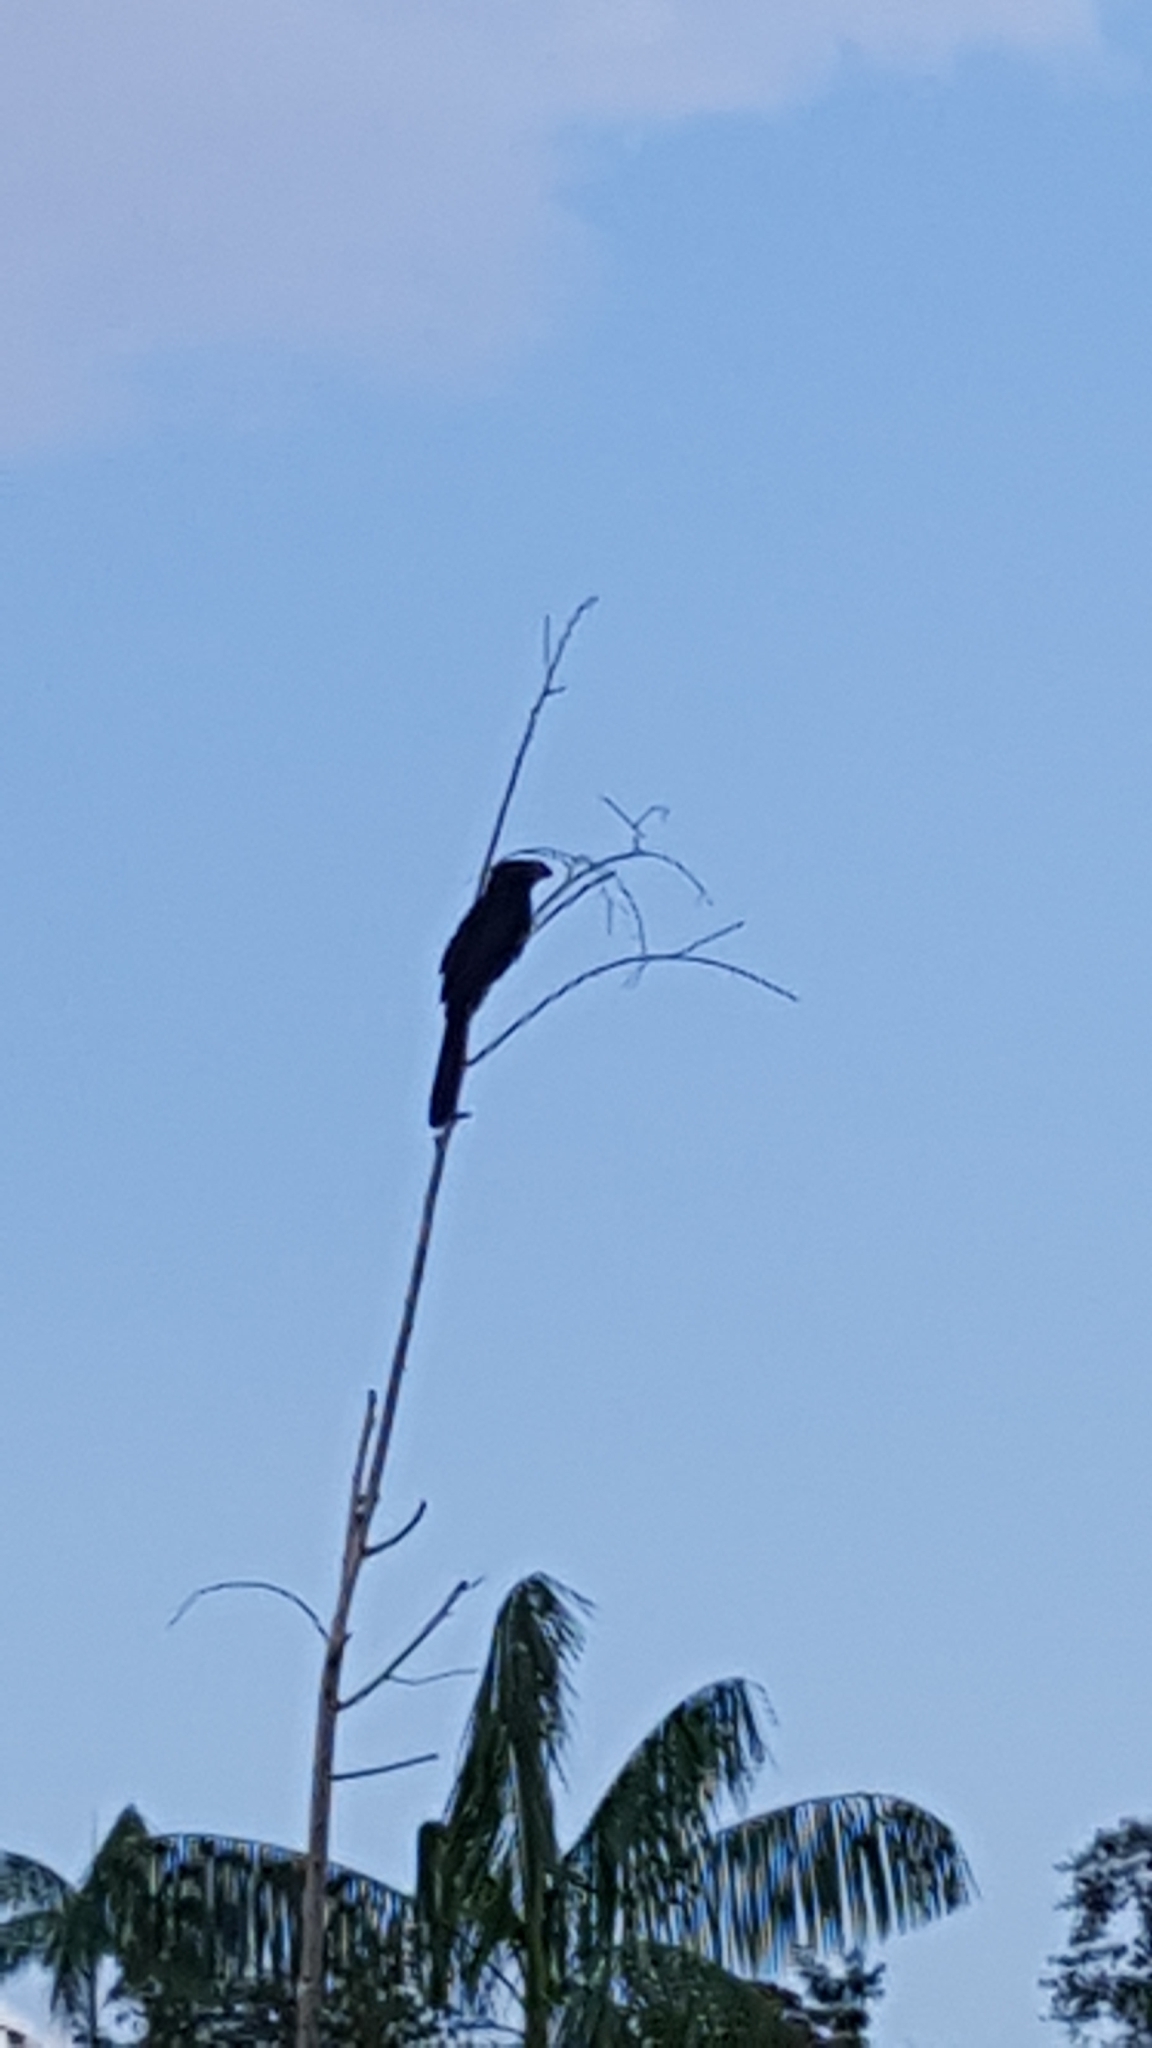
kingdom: Animalia
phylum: Chordata
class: Aves
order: Cuculiformes
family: Cuculidae
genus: Crotophaga
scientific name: Crotophaga ani
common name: Smooth-billed ani
